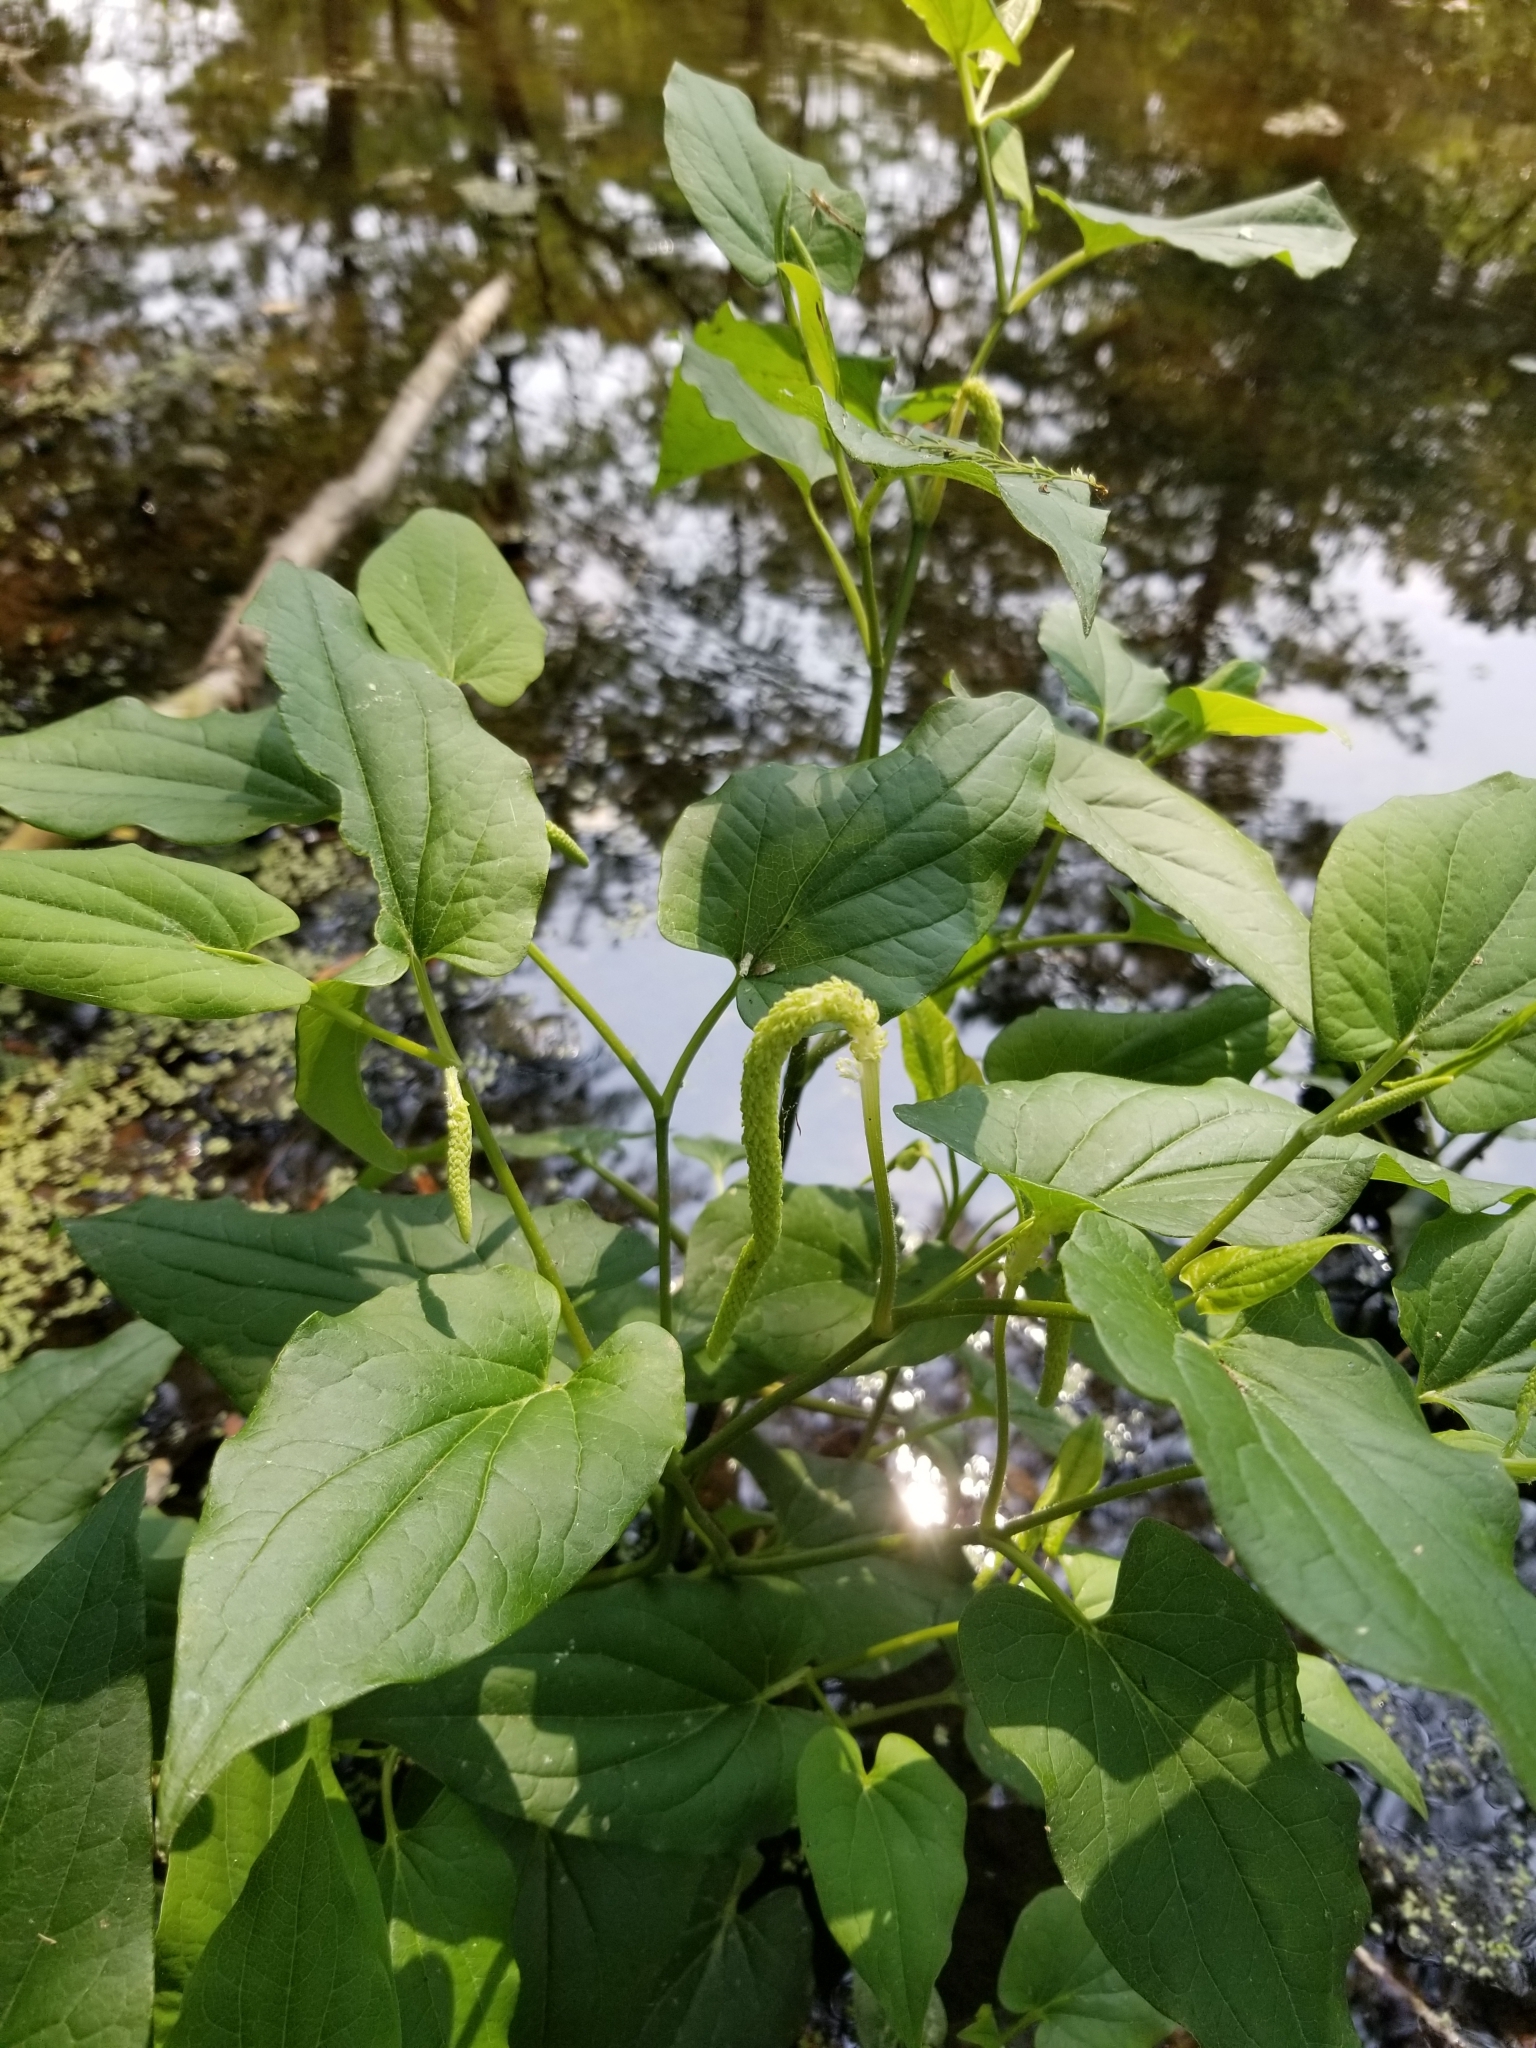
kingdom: Plantae
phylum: Tracheophyta
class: Magnoliopsida
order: Piperales
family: Saururaceae
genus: Saururus
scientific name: Saururus cernuus
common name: Lizard's-tail
